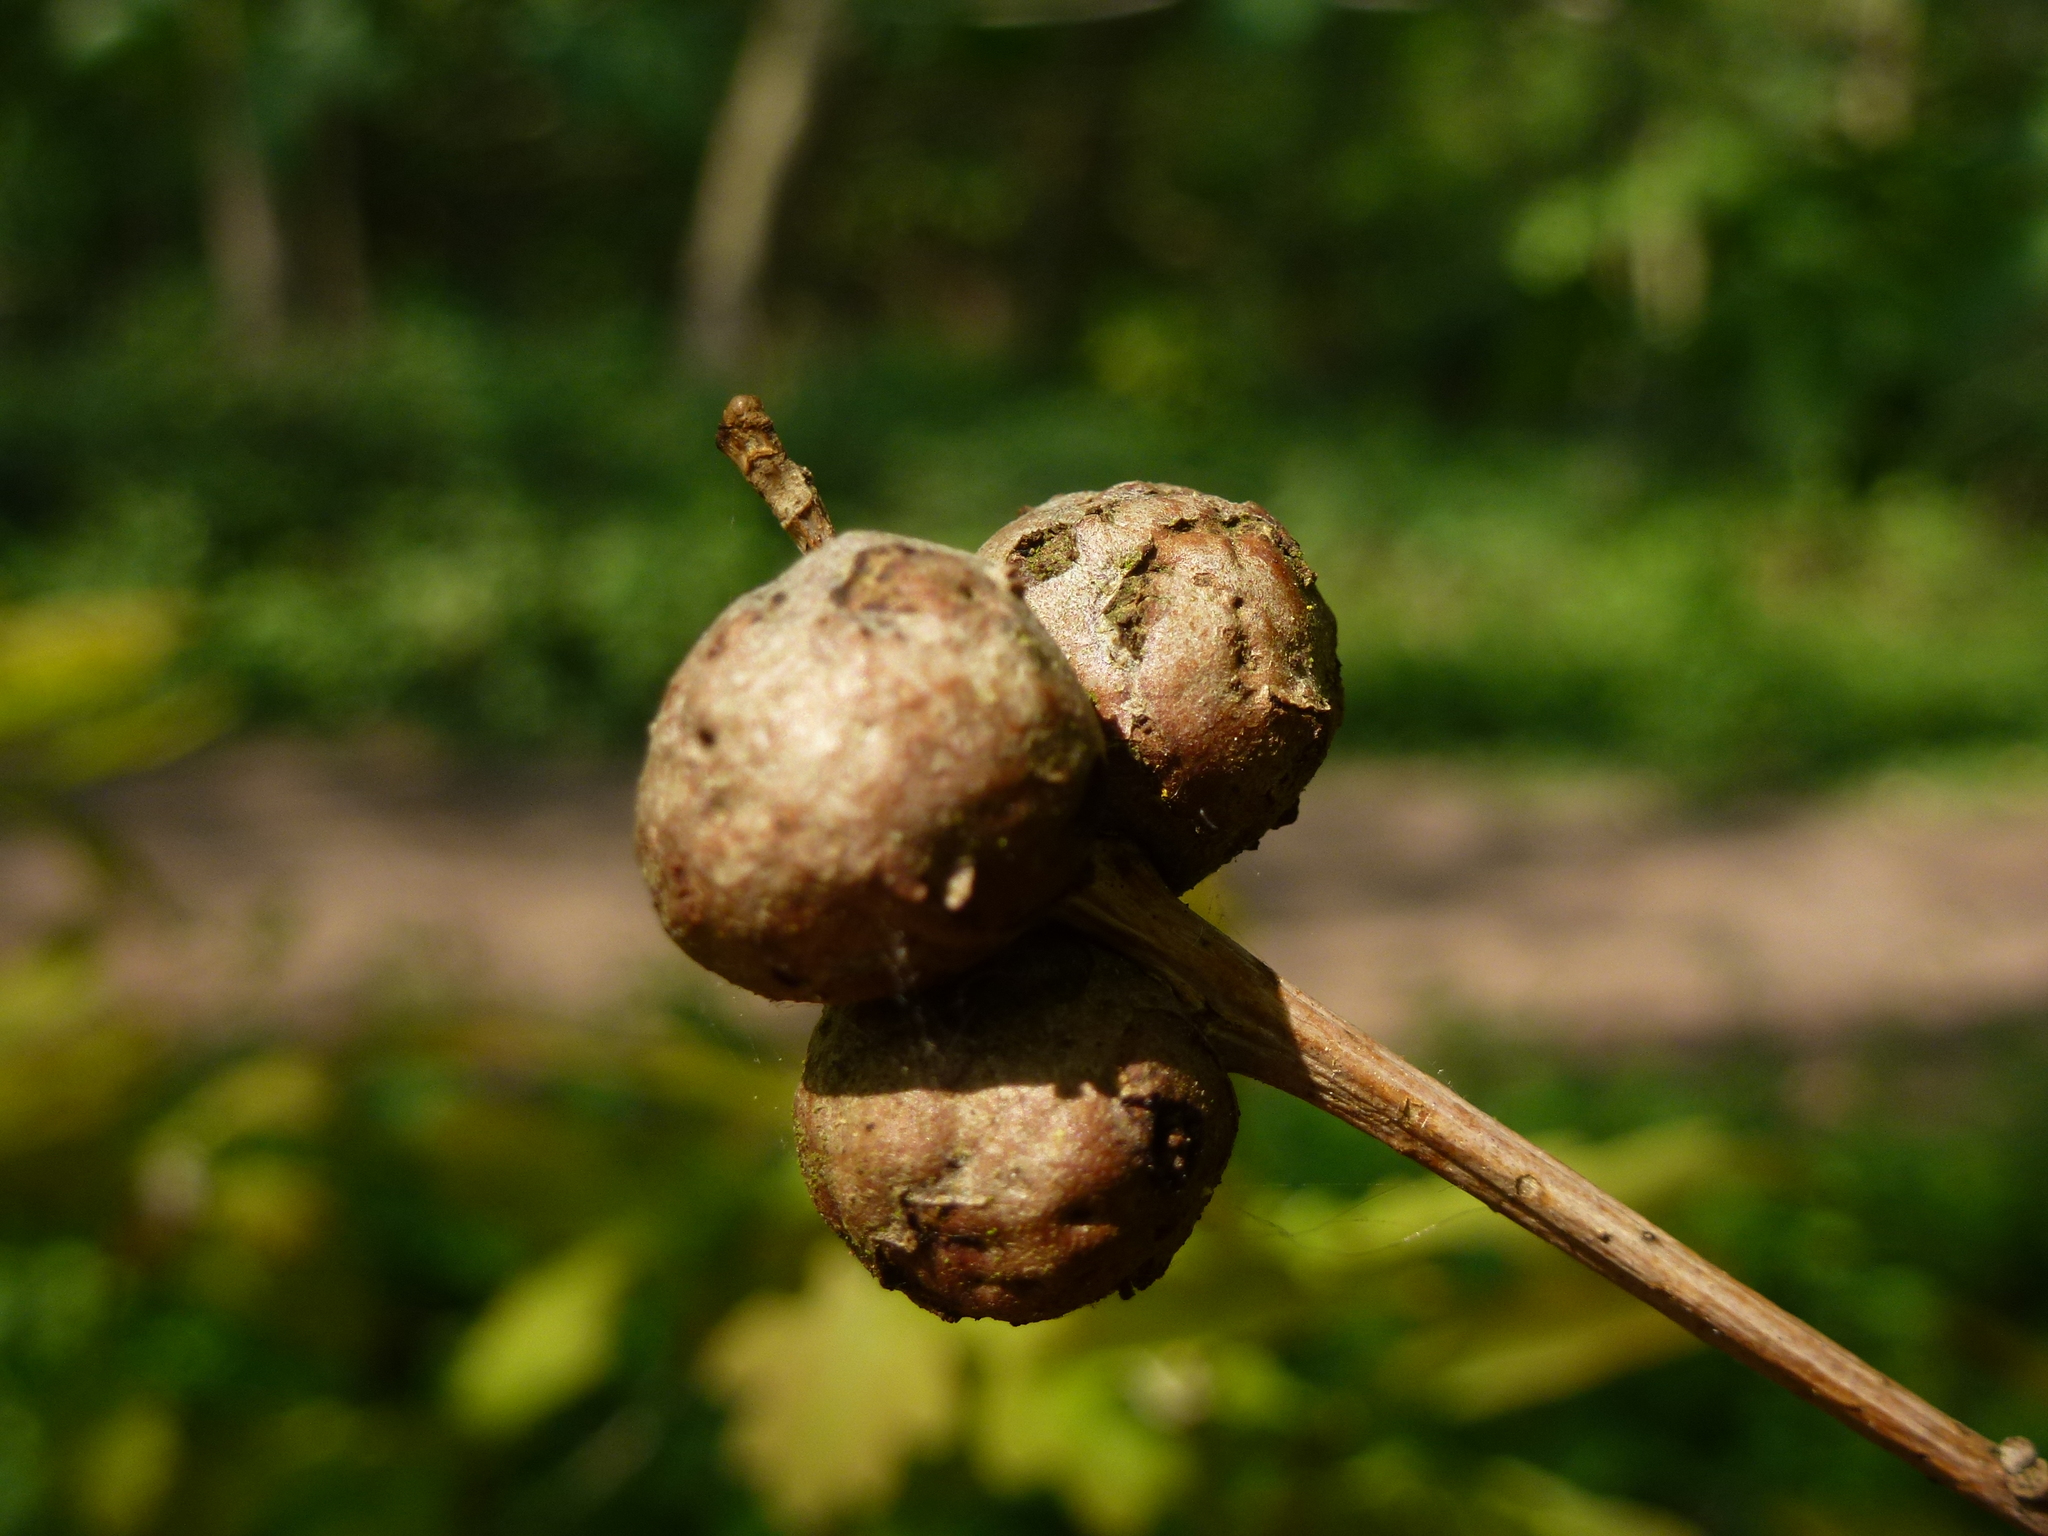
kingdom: Animalia
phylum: Arthropoda
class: Insecta
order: Hymenoptera
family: Cynipidae
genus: Andricus
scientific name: Andricus lignicolus
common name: Cola-nut gall
